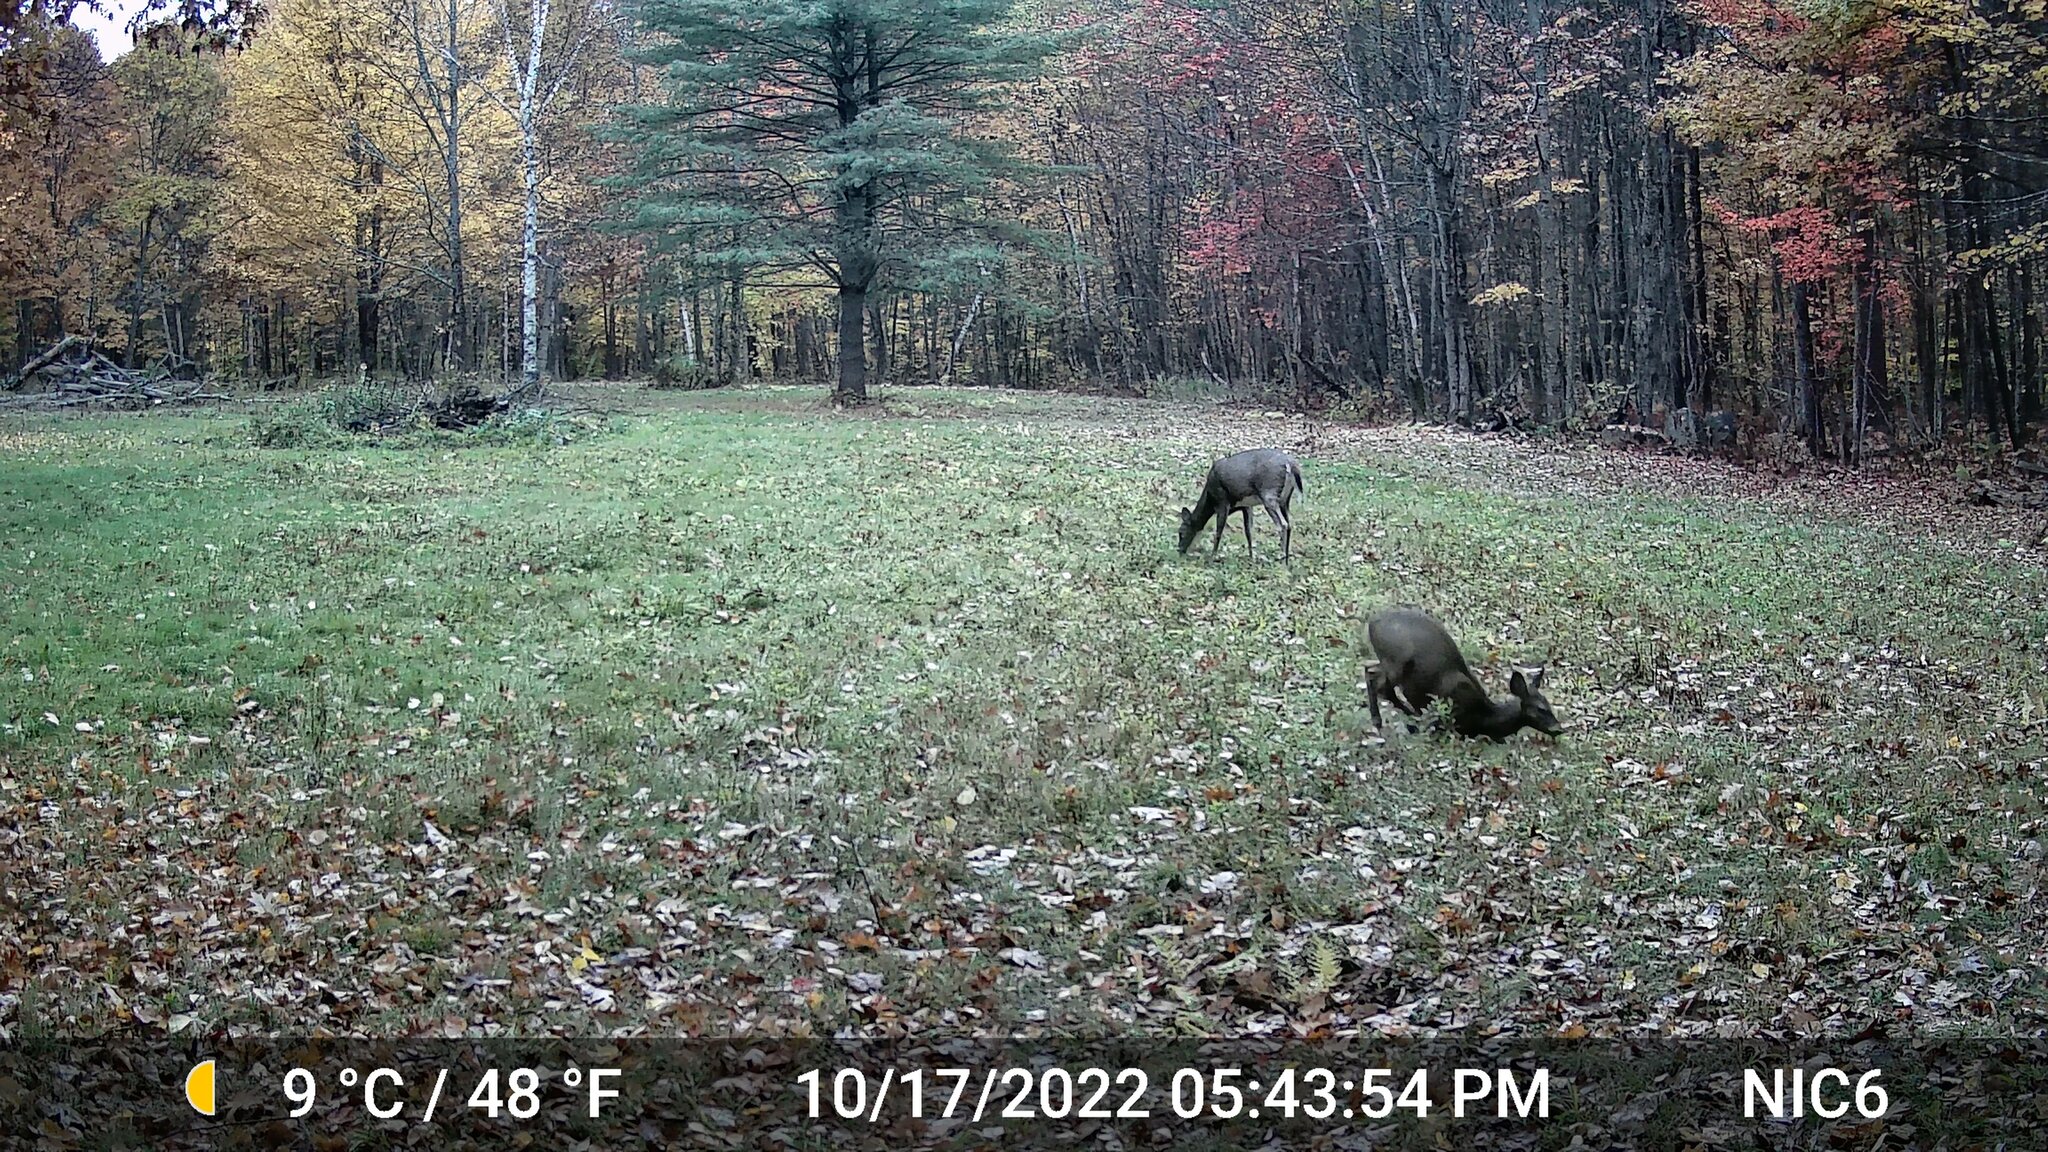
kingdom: Animalia
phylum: Chordata
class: Mammalia
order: Artiodactyla
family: Cervidae
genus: Odocoileus
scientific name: Odocoileus virginianus
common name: White-tailed deer
